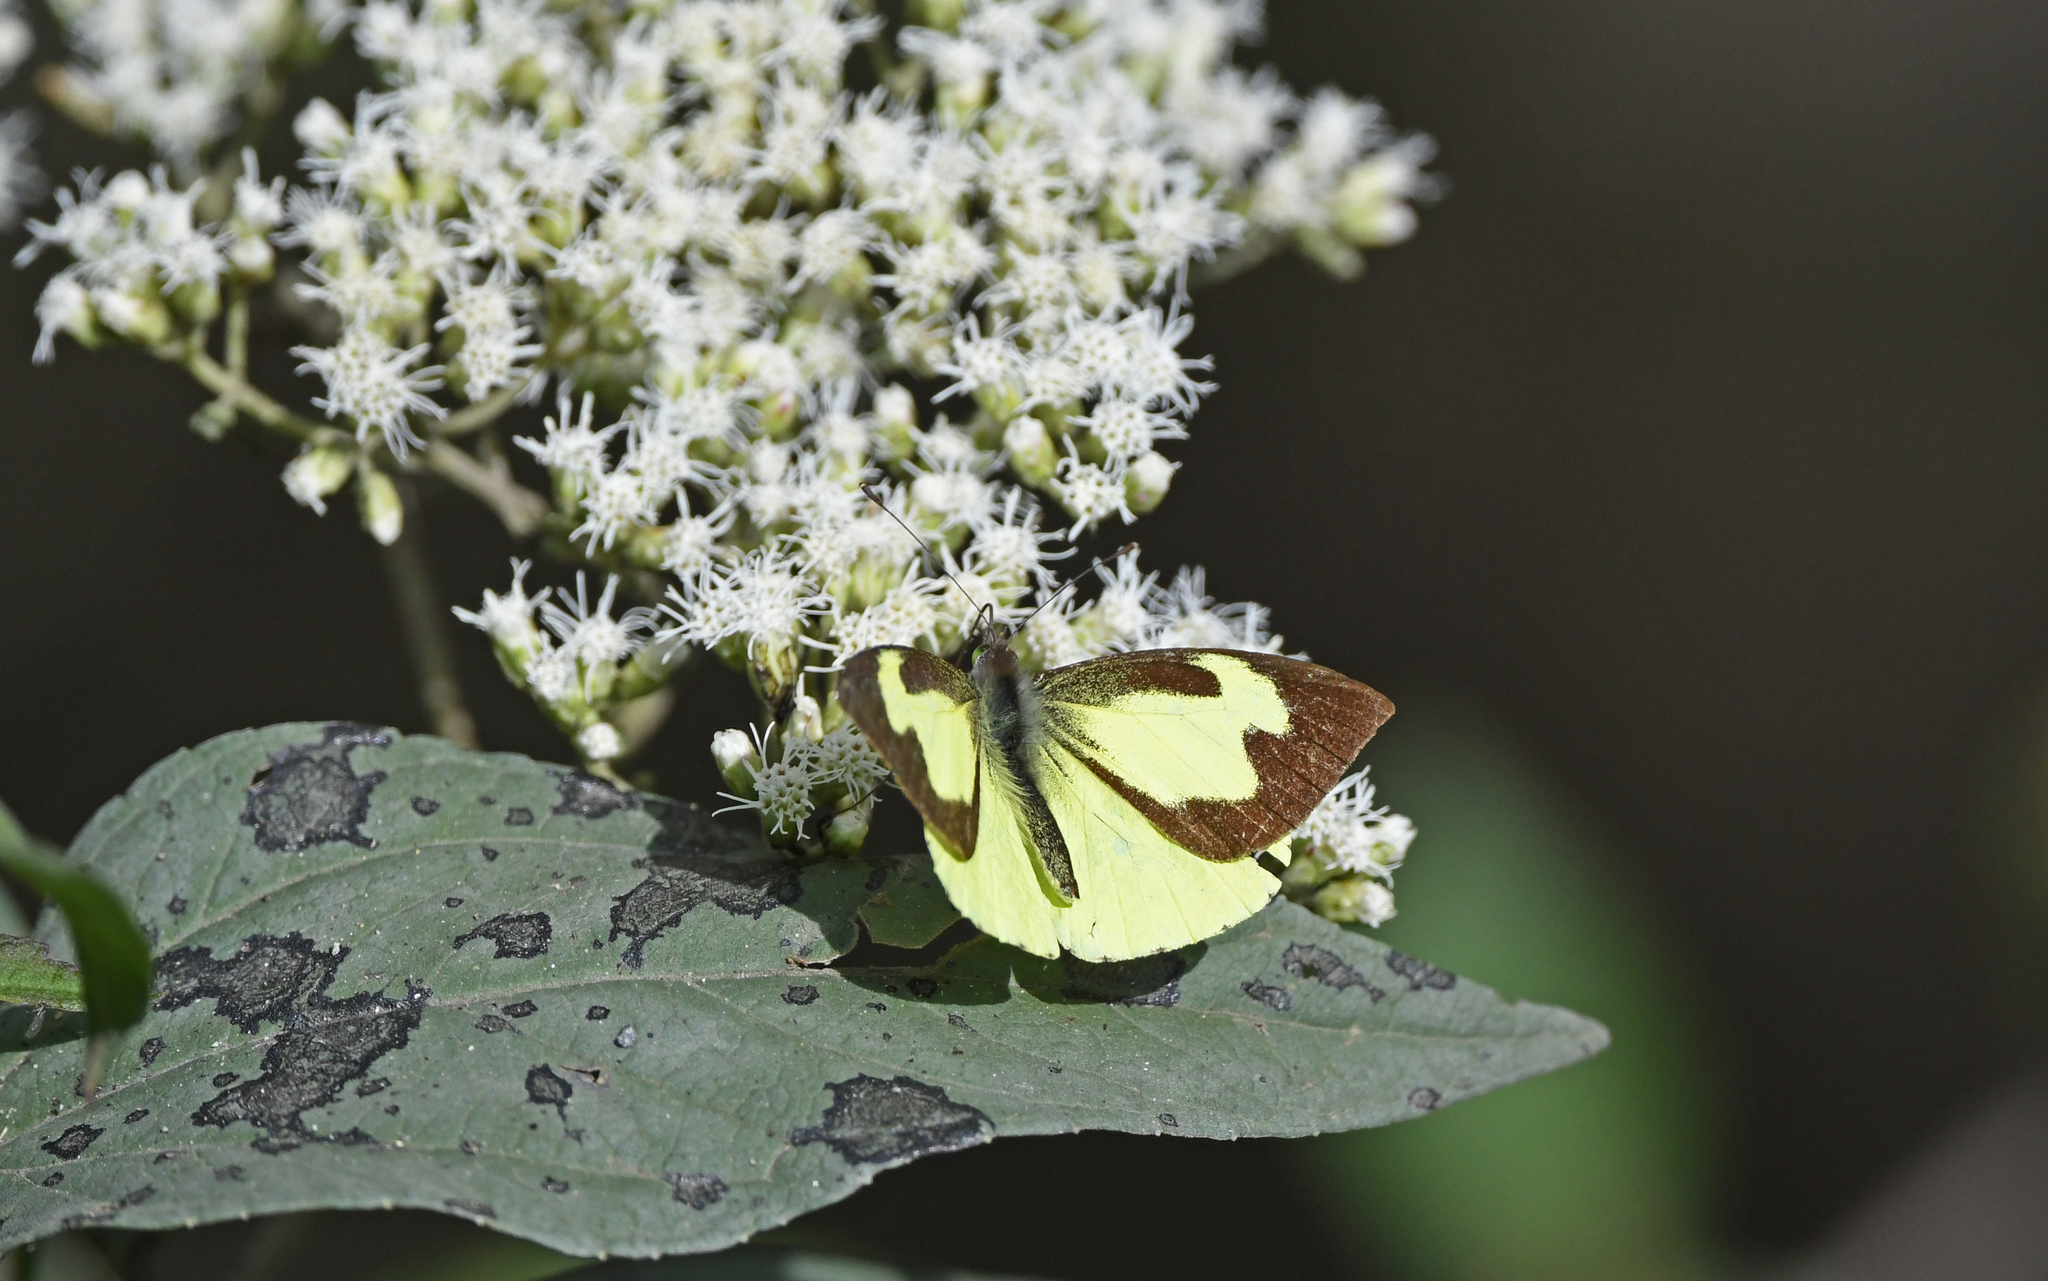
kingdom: Animalia
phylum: Arthropoda
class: Insecta
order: Lepidoptera
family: Pieridae
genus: Leptophobia
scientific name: Leptophobia eleone
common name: Silky wanderer
